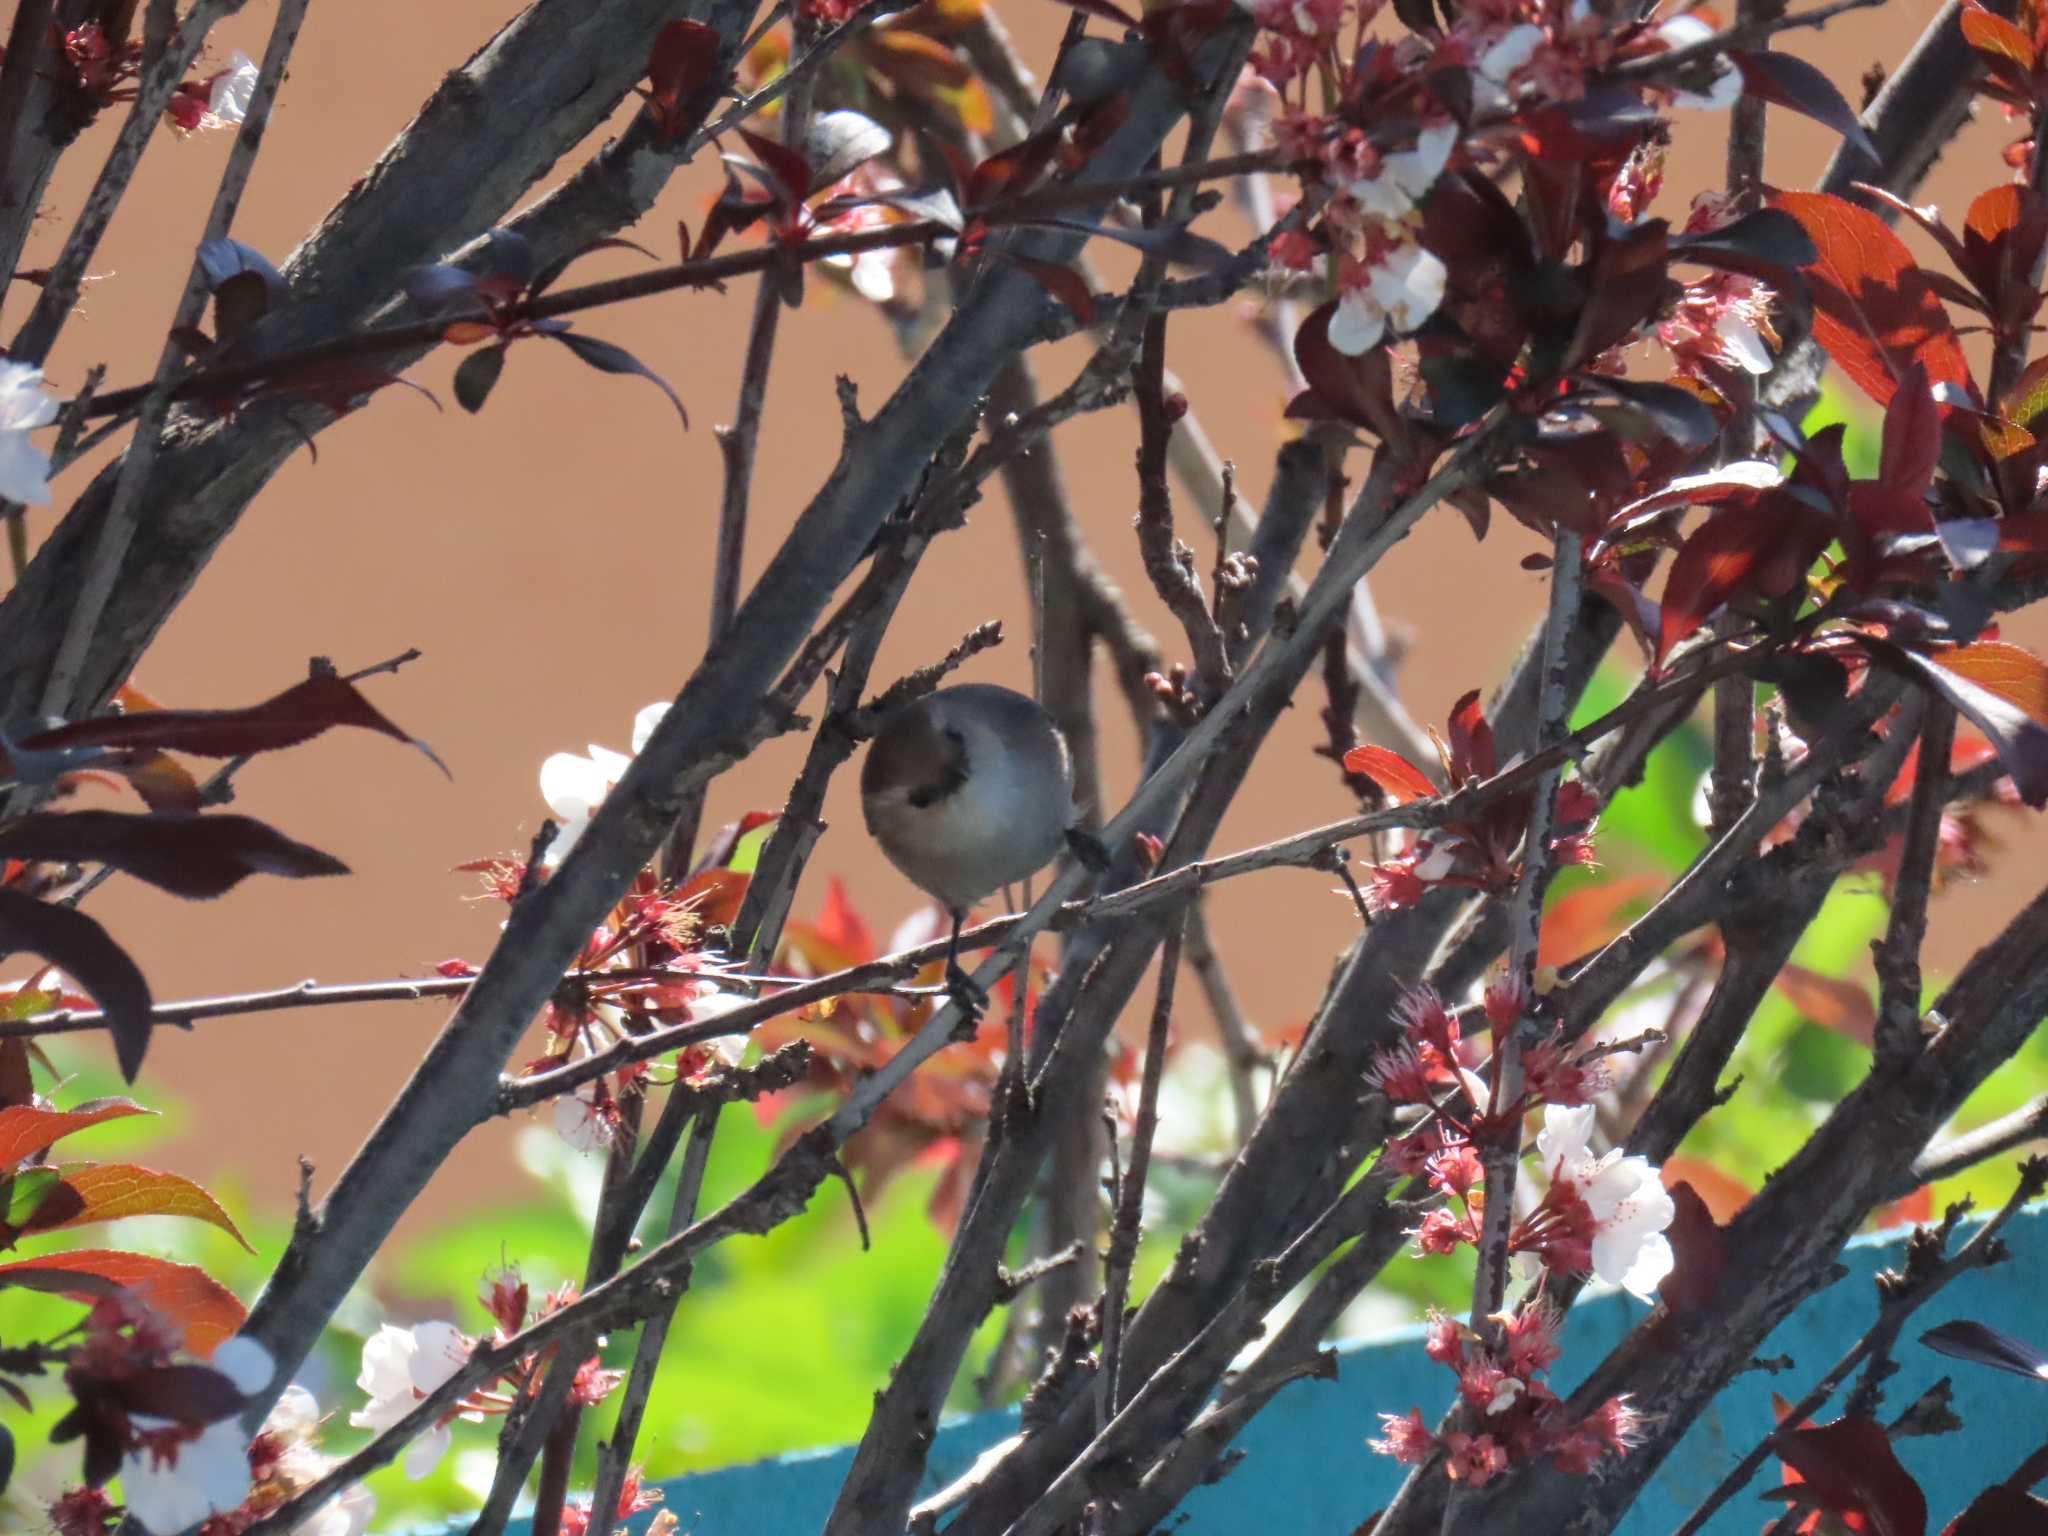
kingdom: Animalia
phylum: Chordata
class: Aves
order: Passeriformes
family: Aegithalidae
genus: Psaltriparus
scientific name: Psaltriparus minimus
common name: American bushtit
